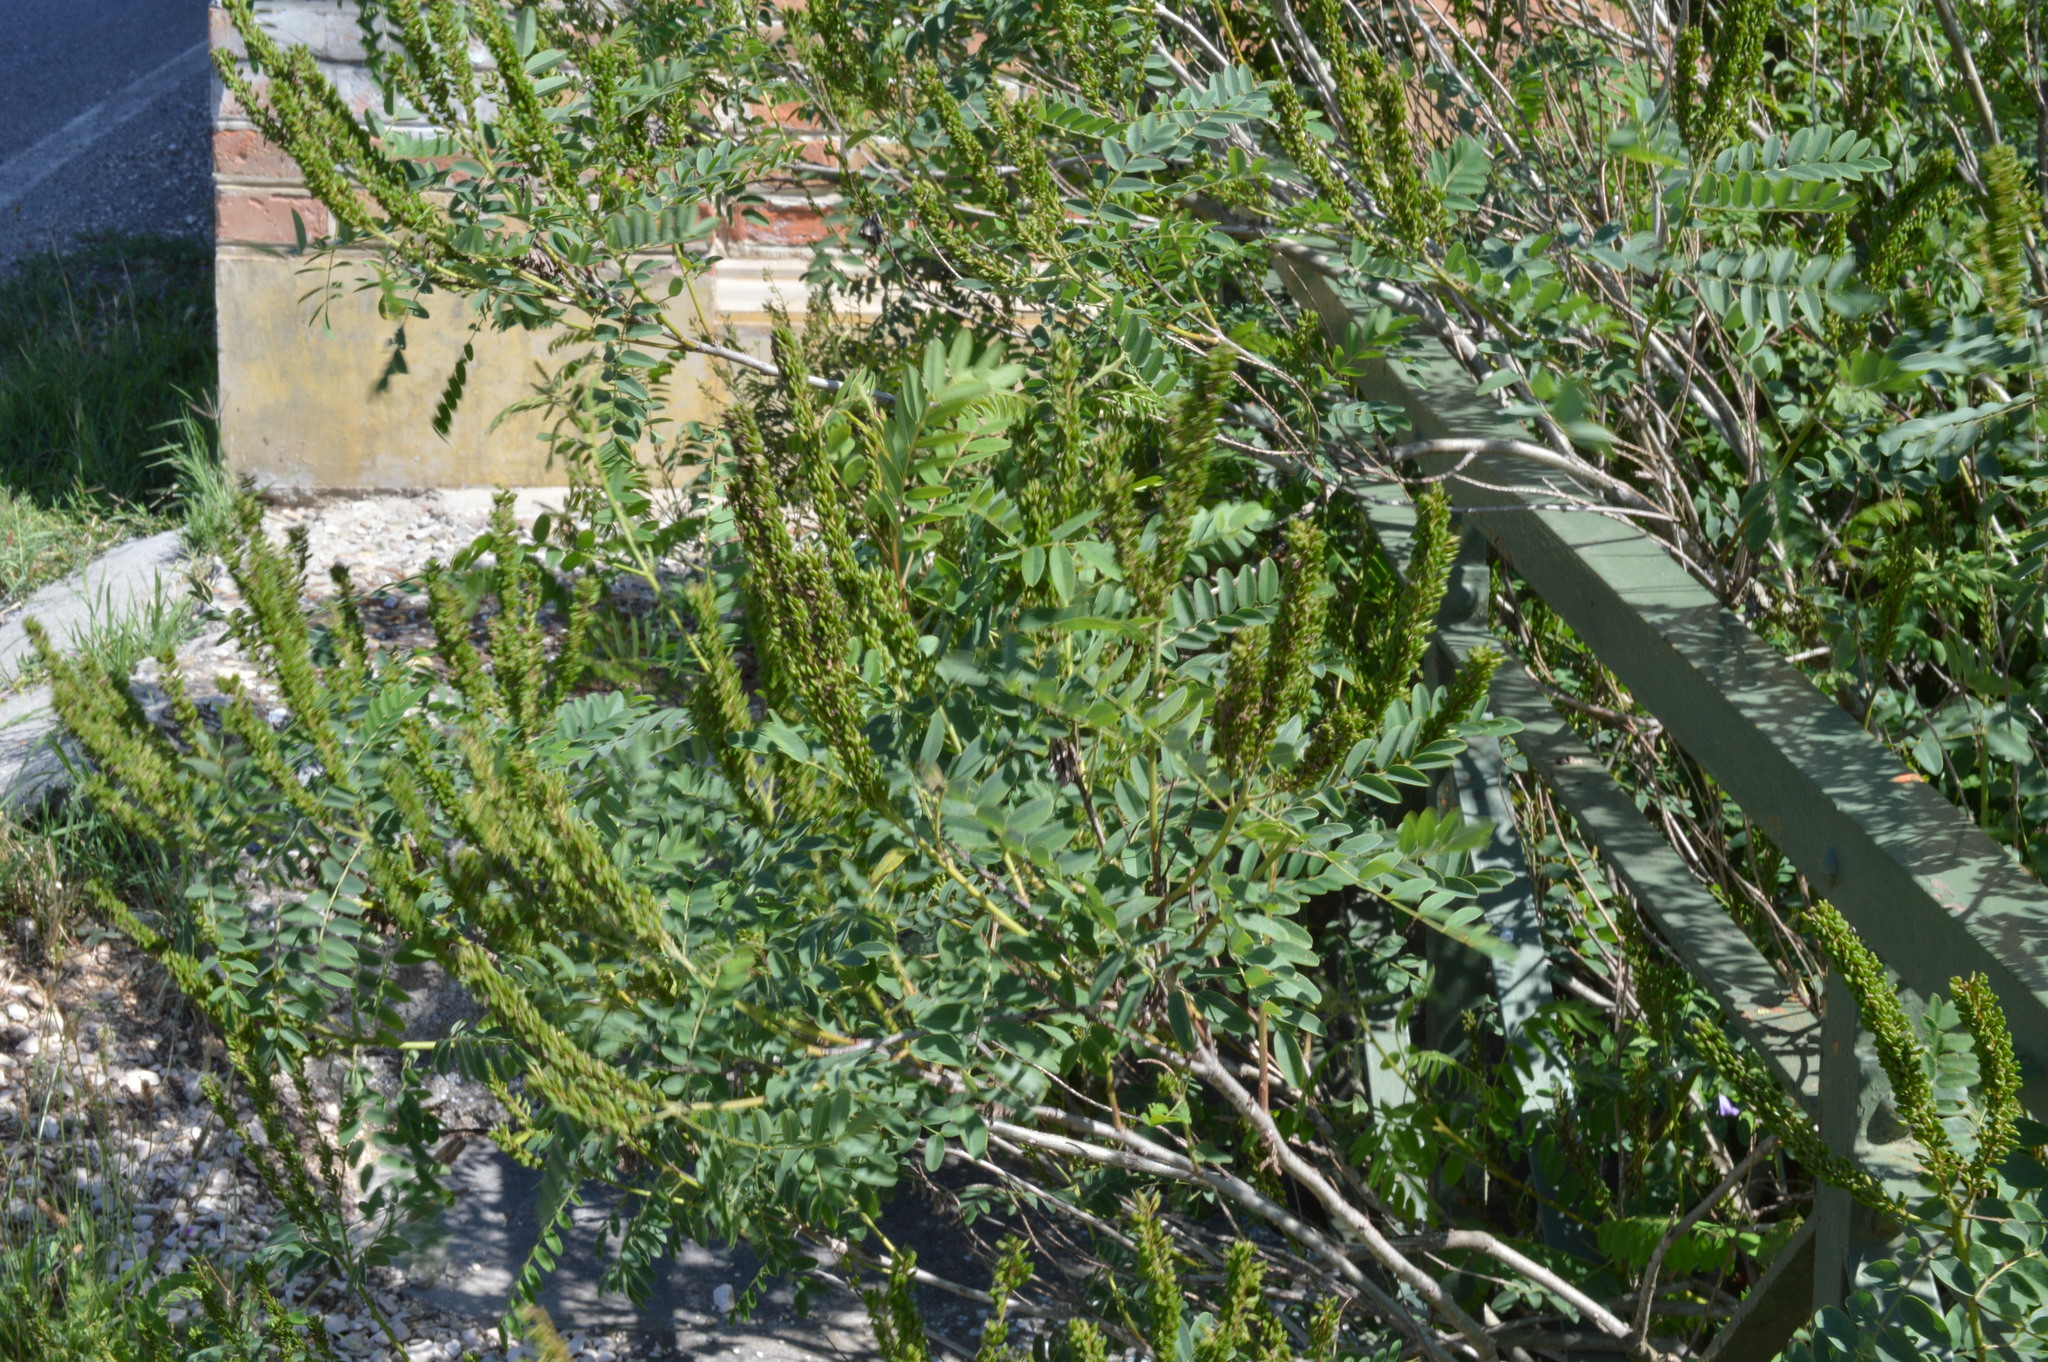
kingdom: Plantae
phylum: Tracheophyta
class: Magnoliopsida
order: Fabales
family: Fabaceae
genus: Amorpha
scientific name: Amorpha fruticosa
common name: False indigo
